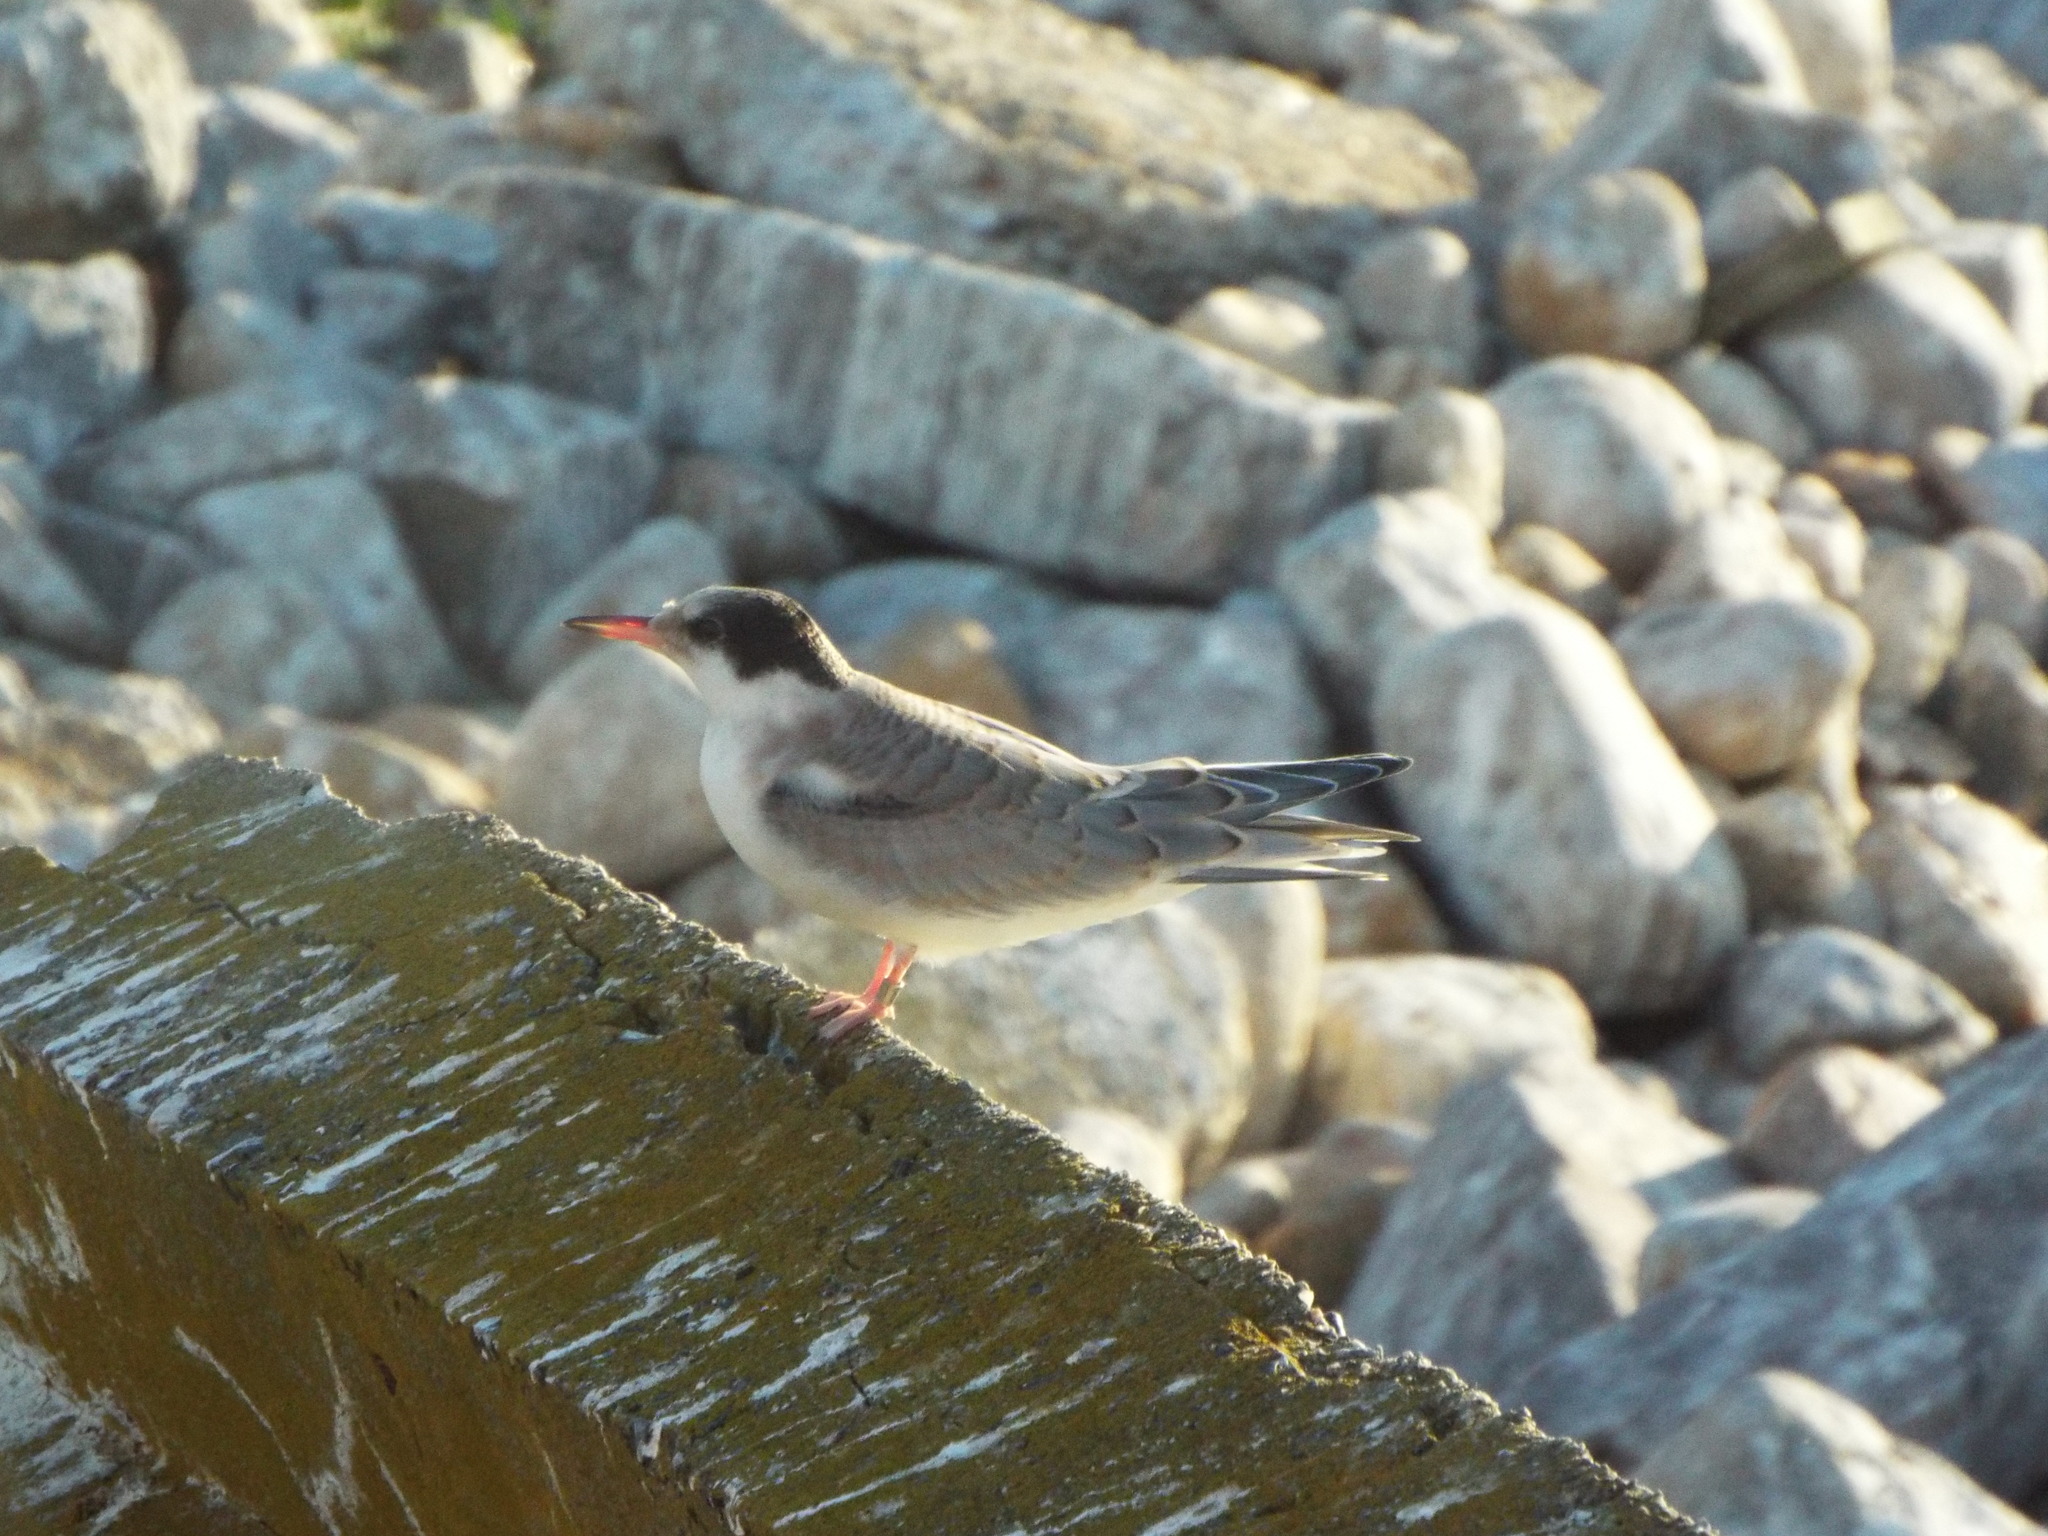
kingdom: Animalia
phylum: Chordata
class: Aves
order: Charadriiformes
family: Laridae
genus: Sterna
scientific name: Sterna hirundo
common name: Common tern
